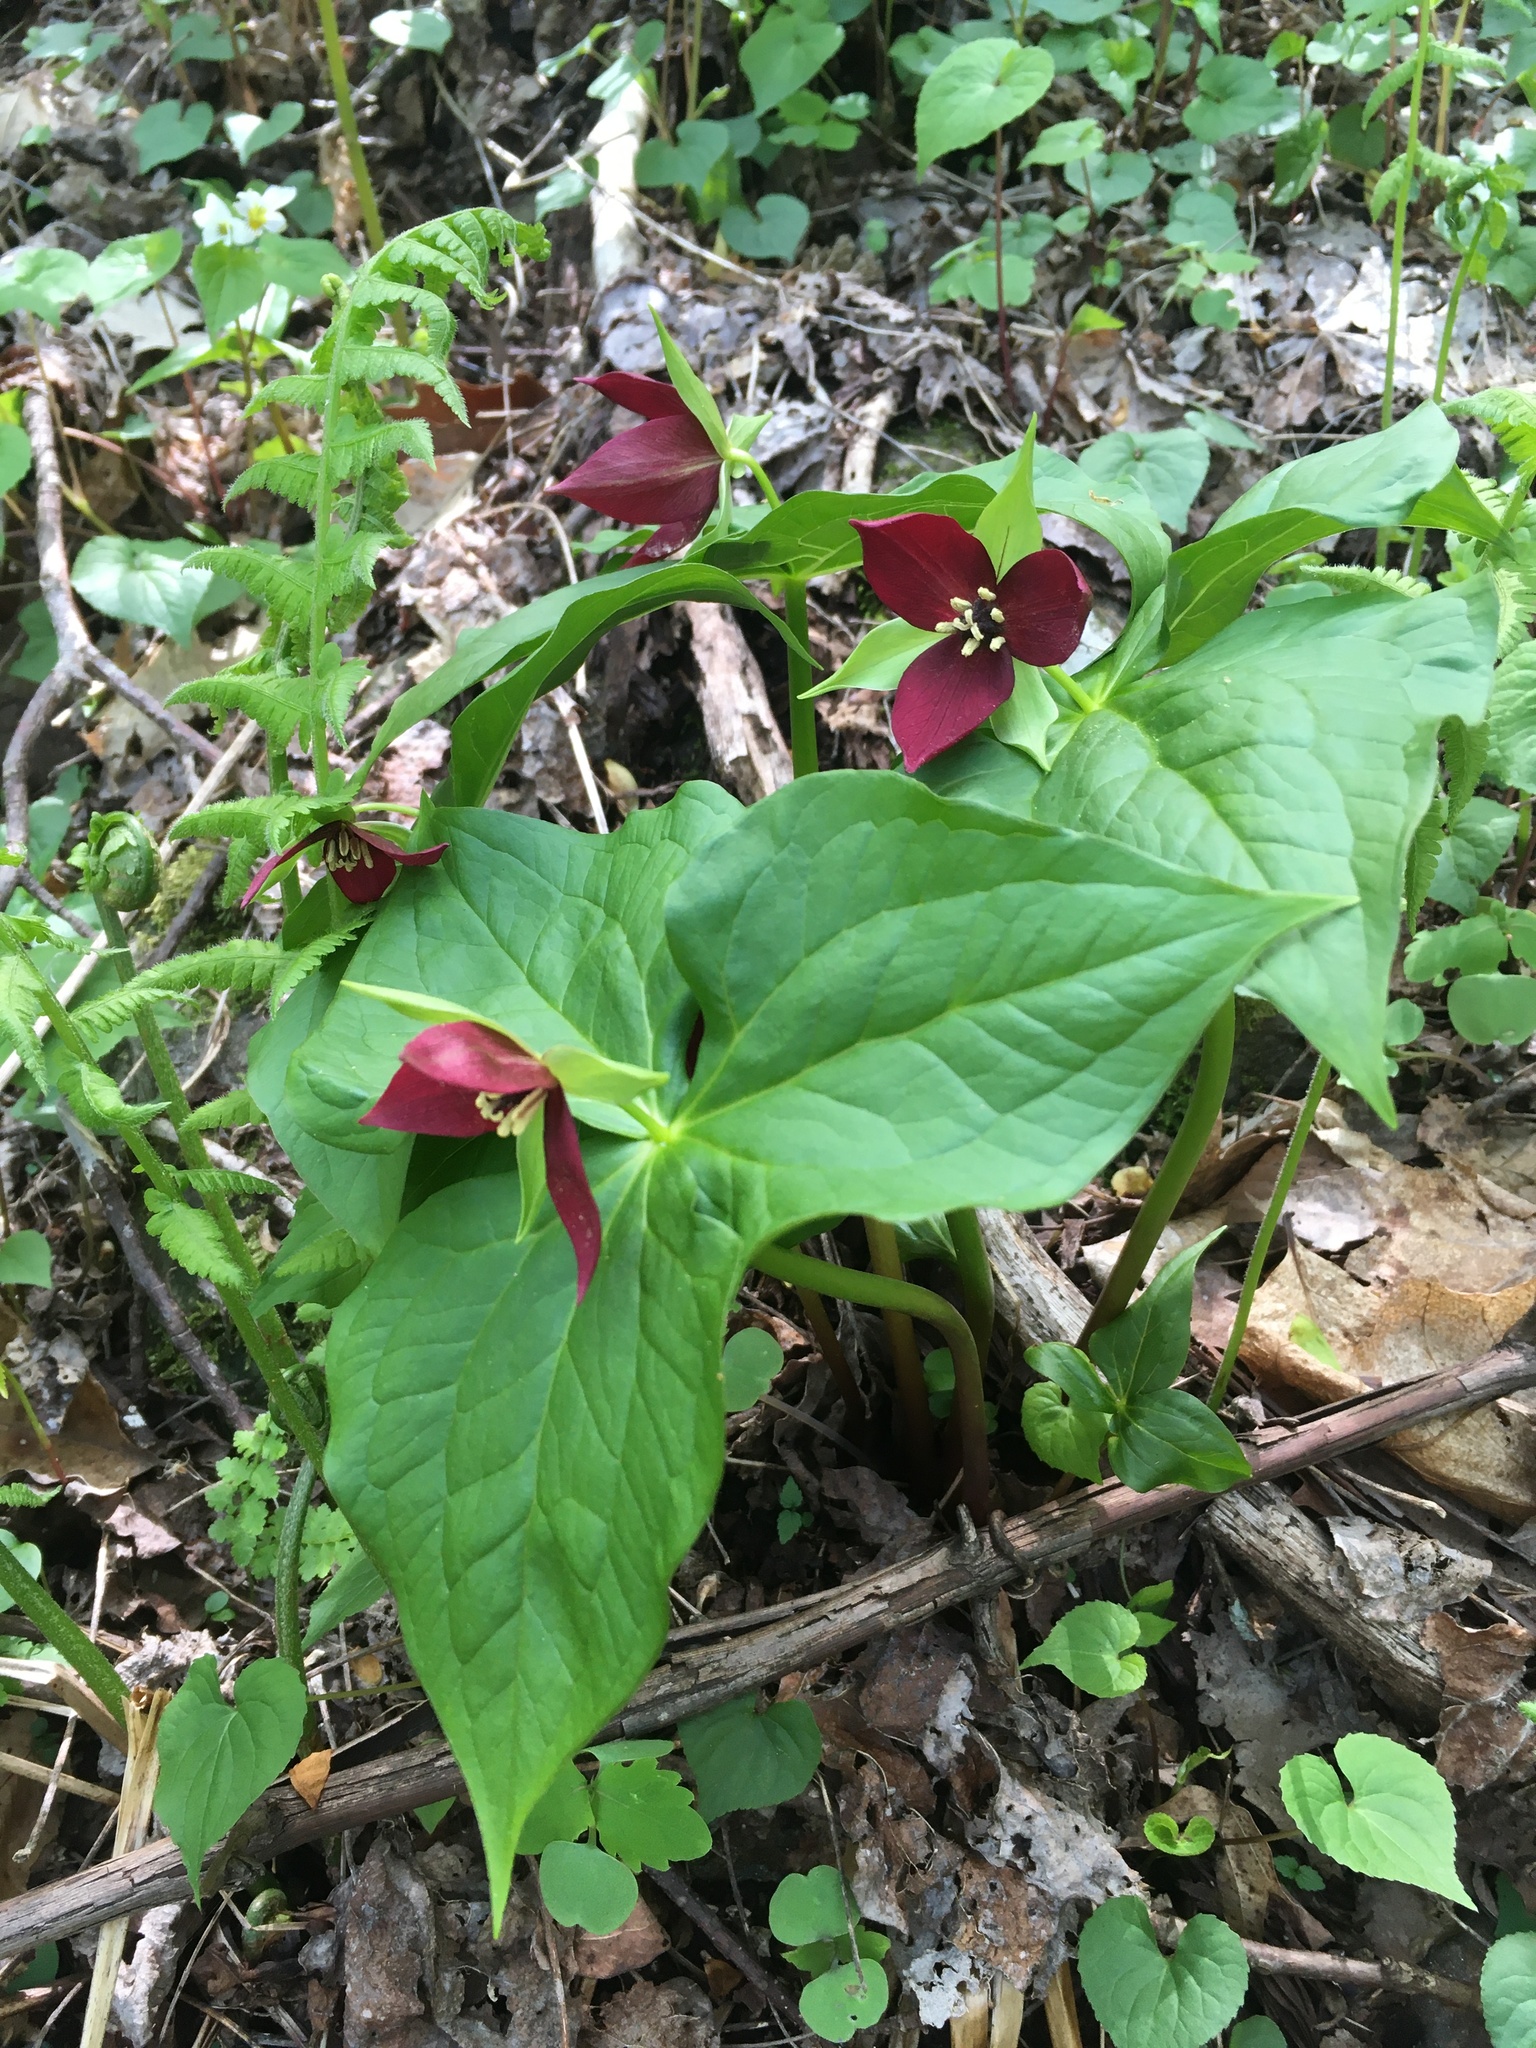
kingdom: Plantae
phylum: Tracheophyta
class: Liliopsida
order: Liliales
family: Melanthiaceae
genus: Trillium
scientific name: Trillium erectum
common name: Purple trillium
